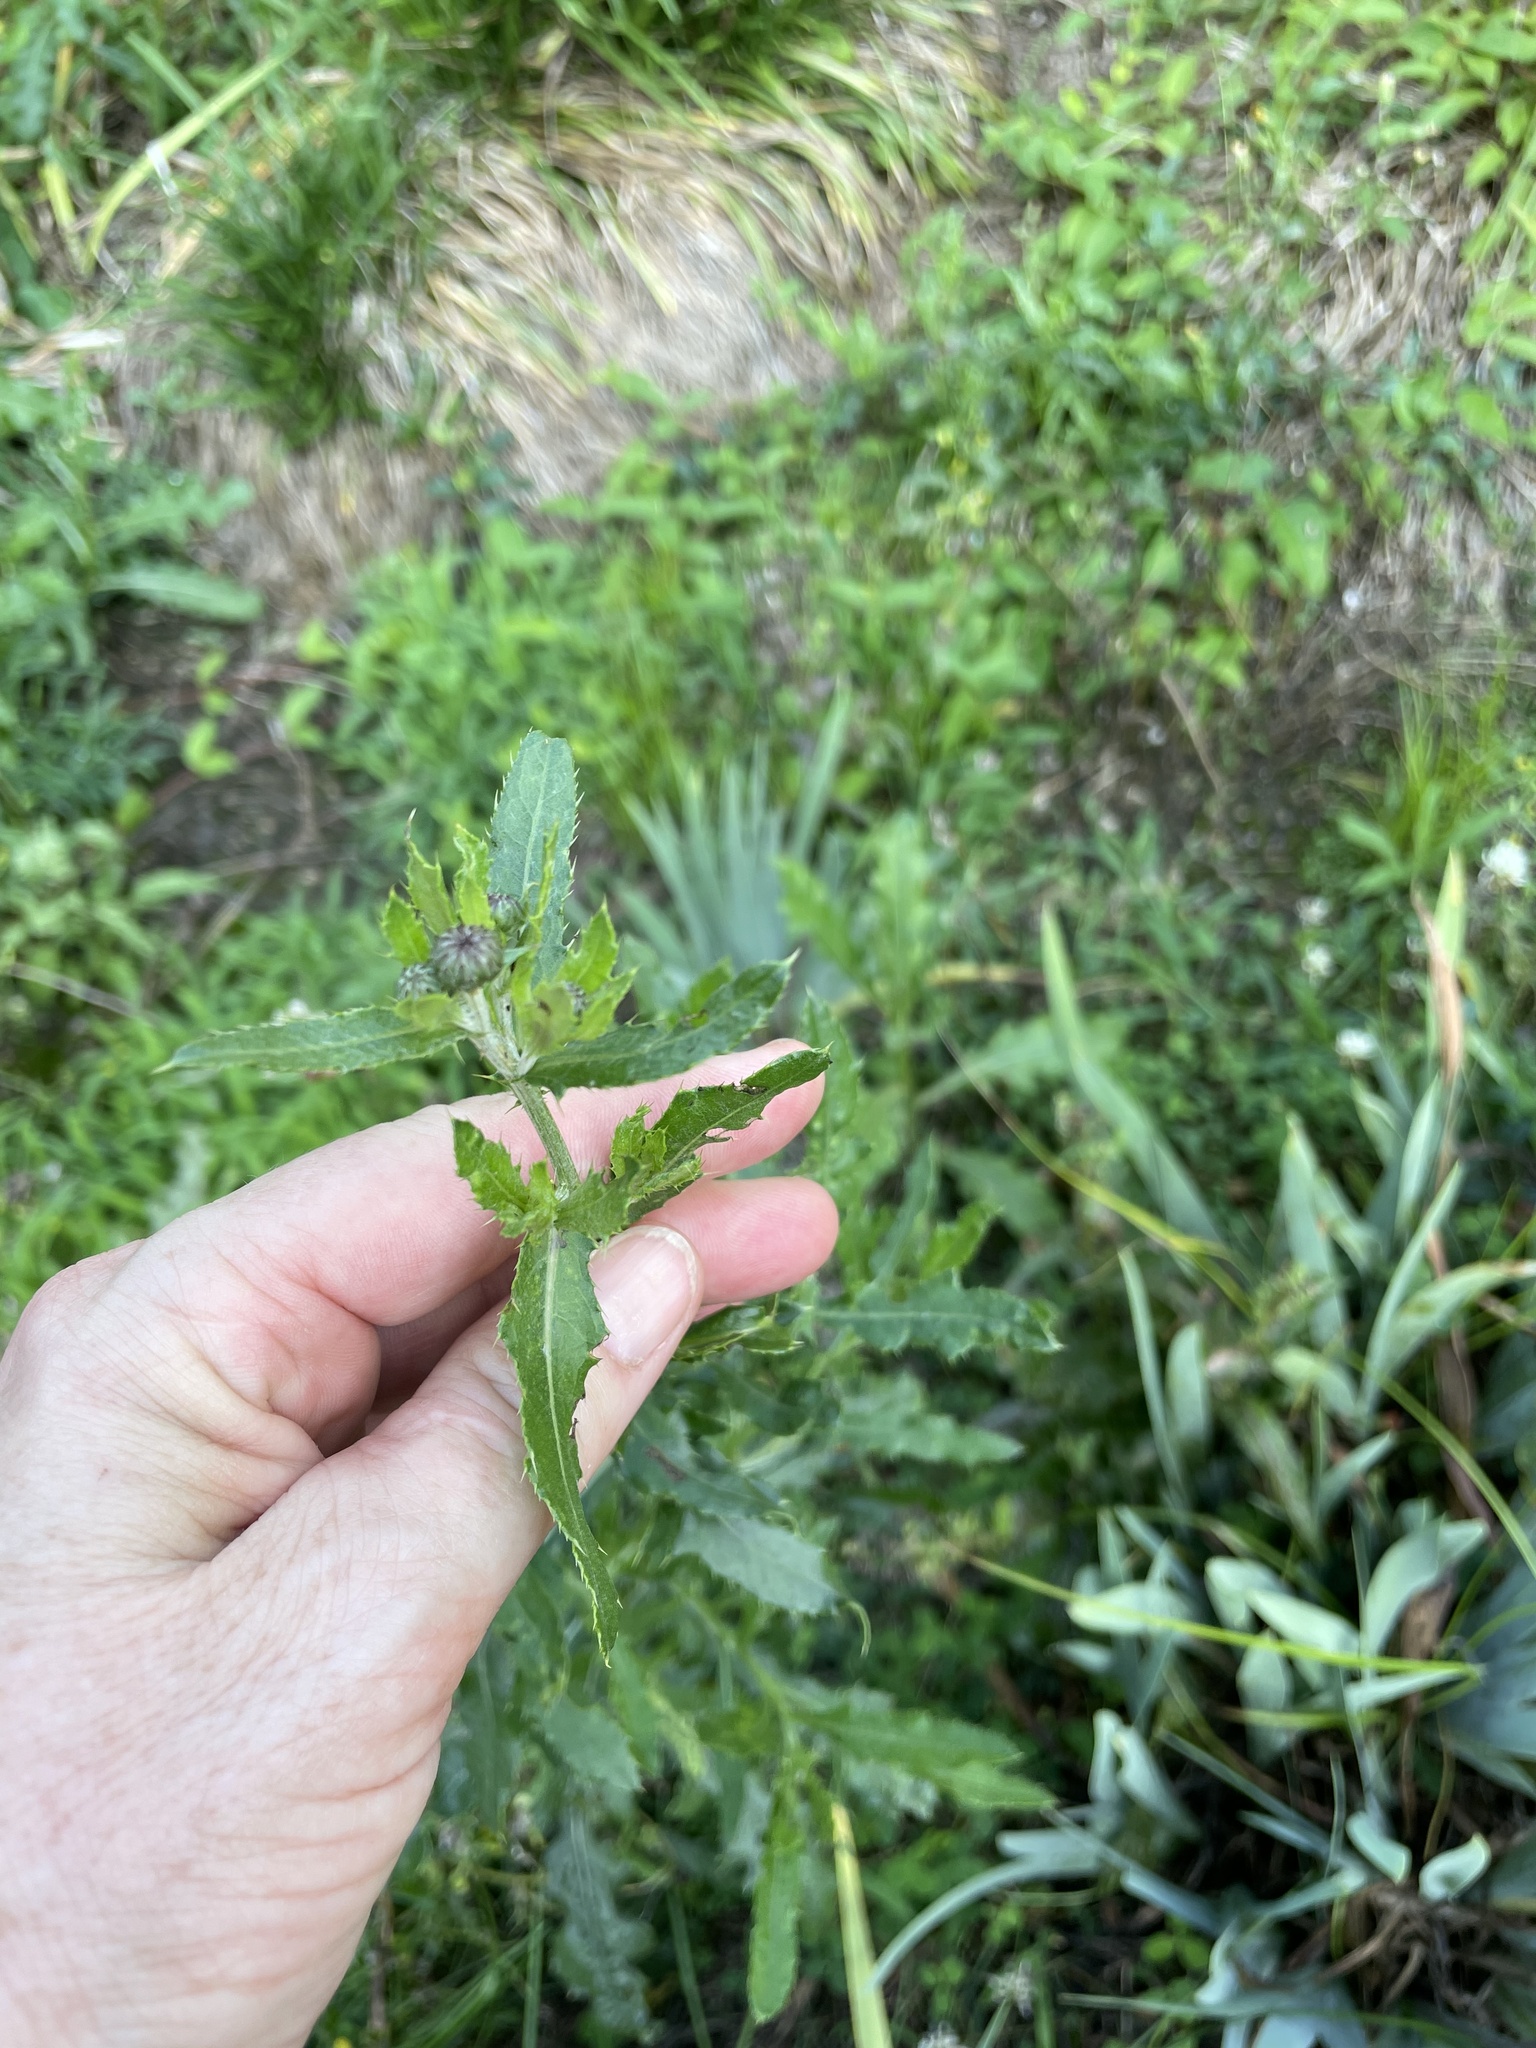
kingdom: Plantae
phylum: Tracheophyta
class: Magnoliopsida
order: Asterales
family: Asteraceae
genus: Cirsium
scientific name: Cirsium arvense
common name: Creeping thistle
